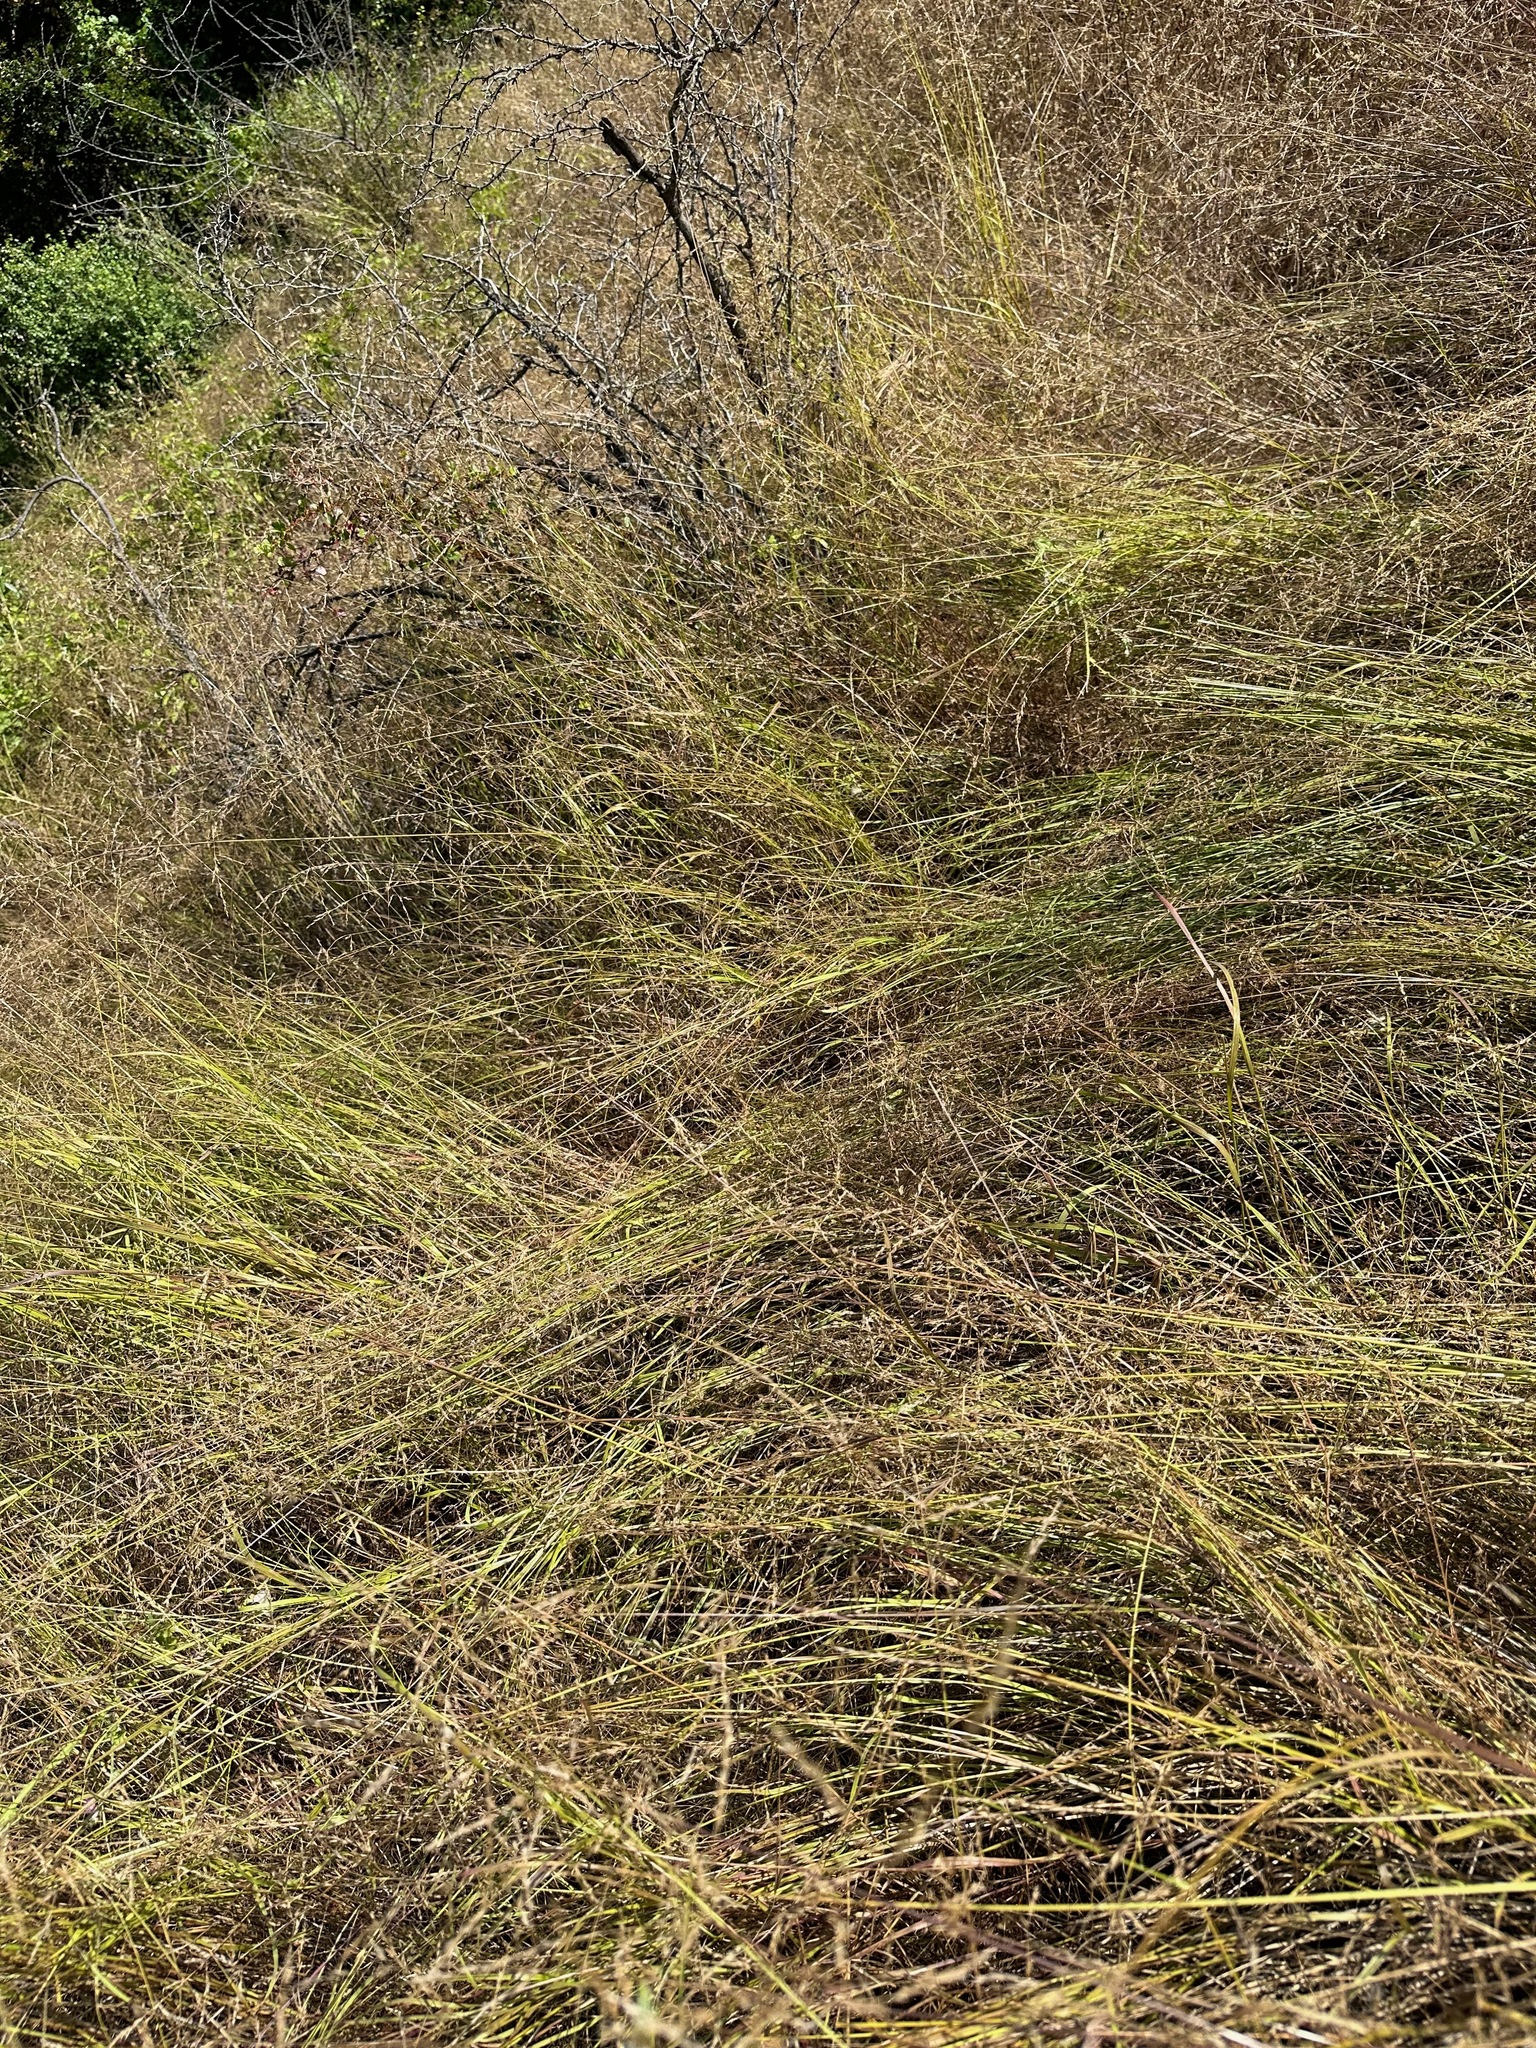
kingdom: Plantae
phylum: Tracheophyta
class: Liliopsida
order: Poales
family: Poaceae
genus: Melica
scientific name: Melica imperfecta
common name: California melic
